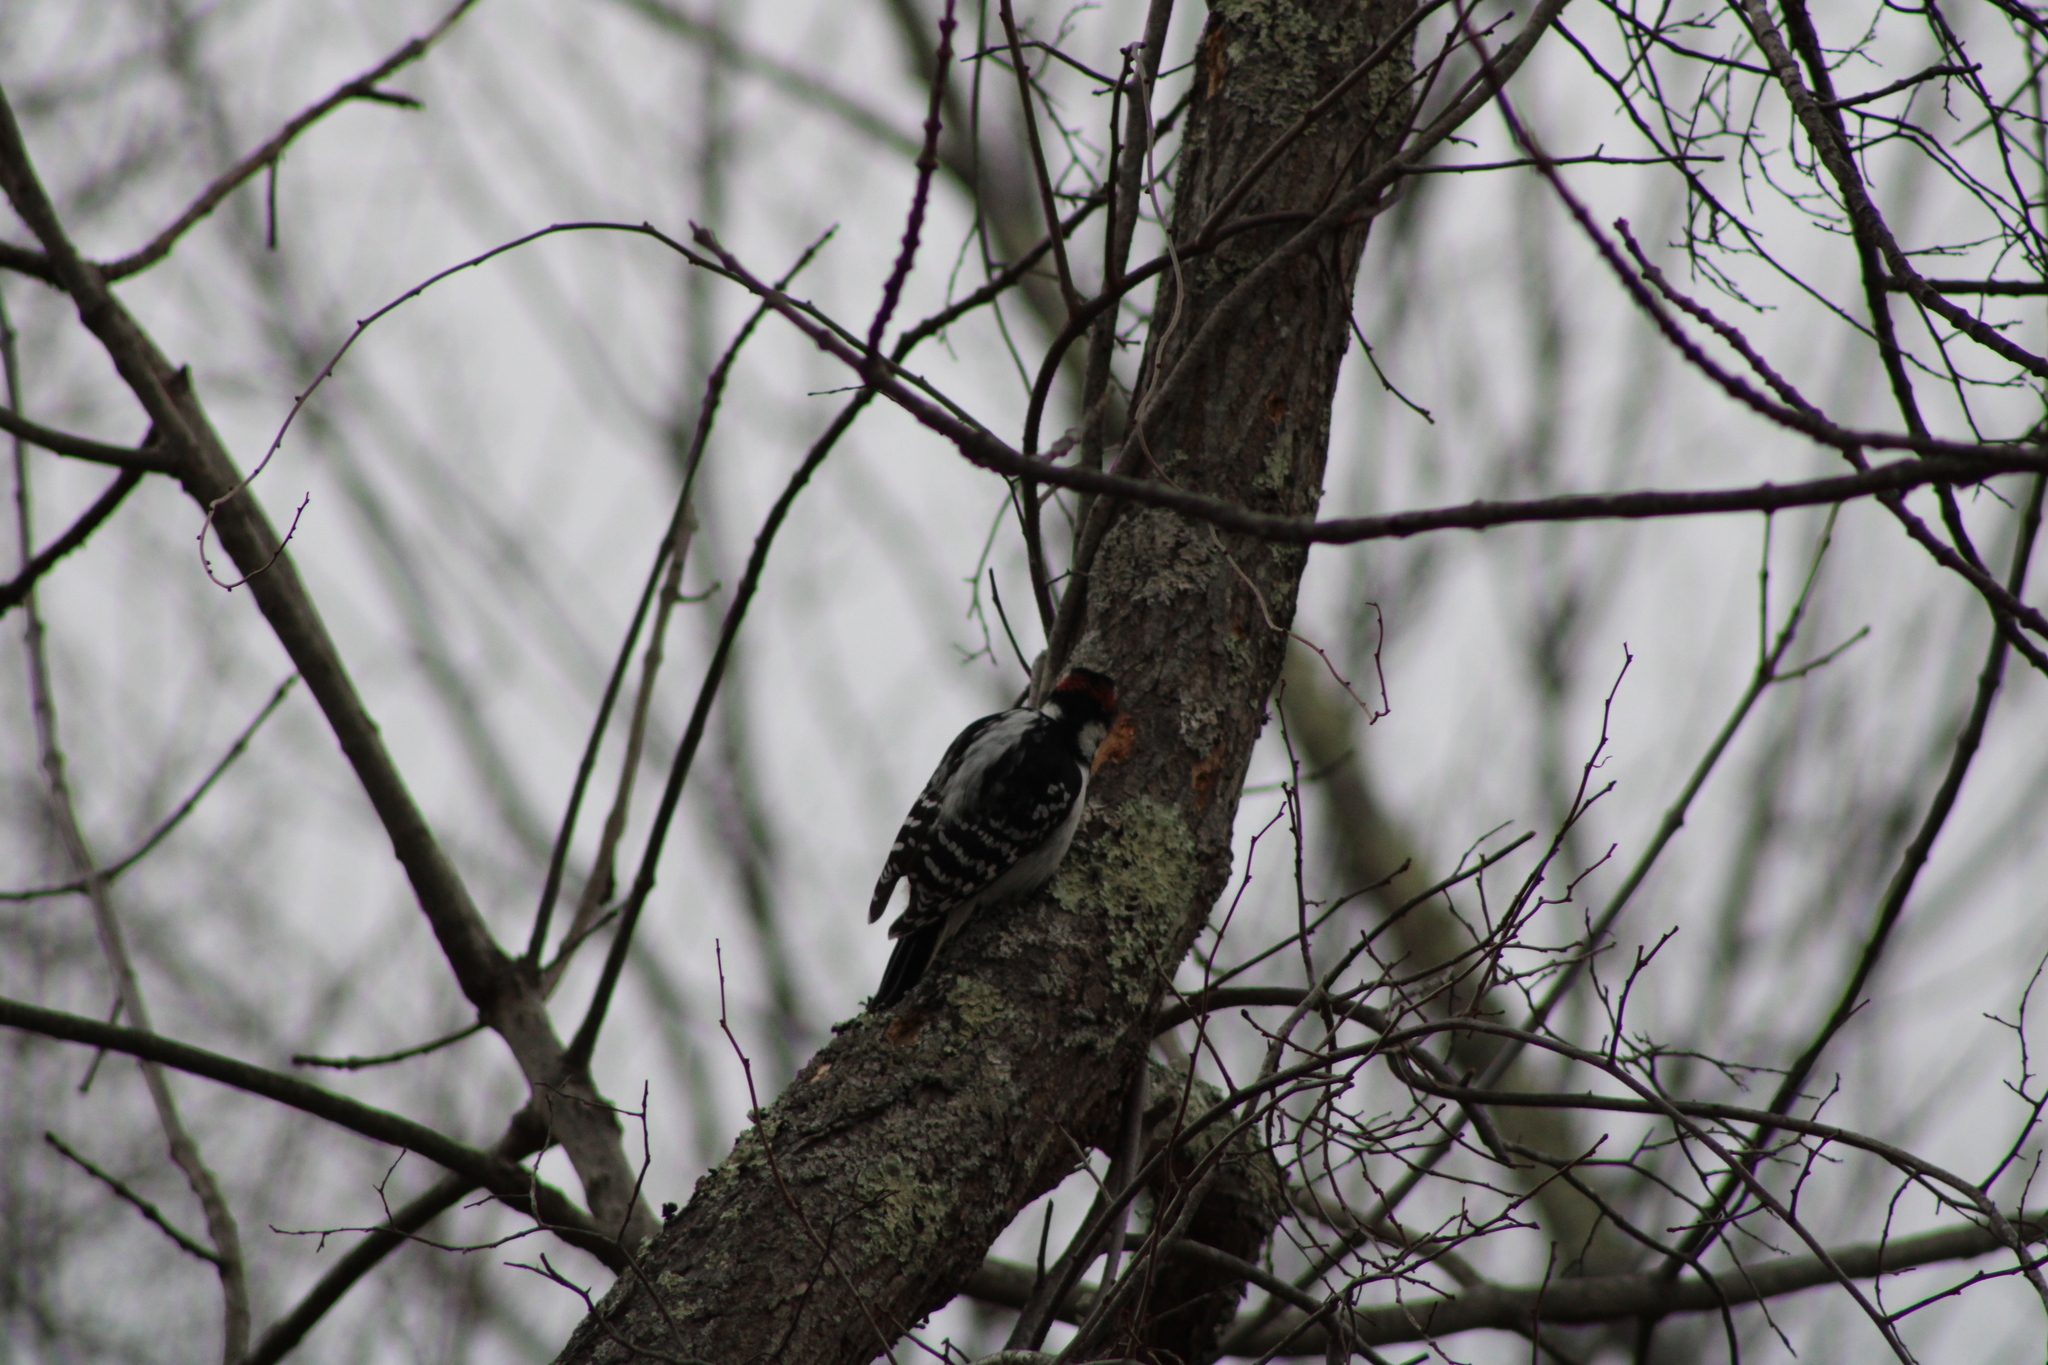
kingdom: Animalia
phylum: Chordata
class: Aves
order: Piciformes
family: Picidae
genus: Leuconotopicus
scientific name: Leuconotopicus villosus
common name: Hairy woodpecker
